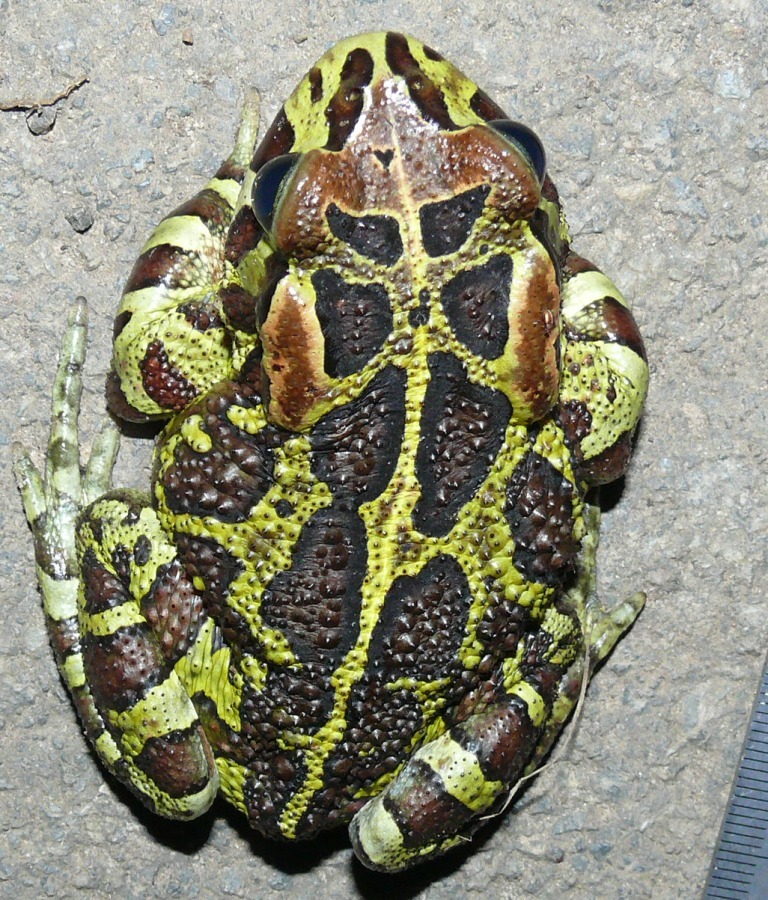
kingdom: Animalia
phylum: Chordata
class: Amphibia
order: Anura
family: Bufonidae
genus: Sclerophrys
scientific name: Sclerophrys pantherina
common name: Panther toad
